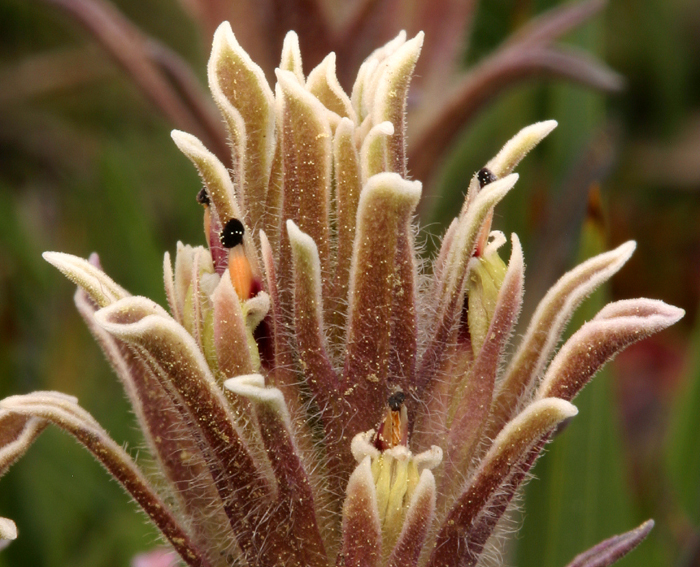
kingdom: Plantae
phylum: Tracheophyta
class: Magnoliopsida
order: Lamiales
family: Orobanchaceae
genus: Castilleja
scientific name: Castilleja nana
